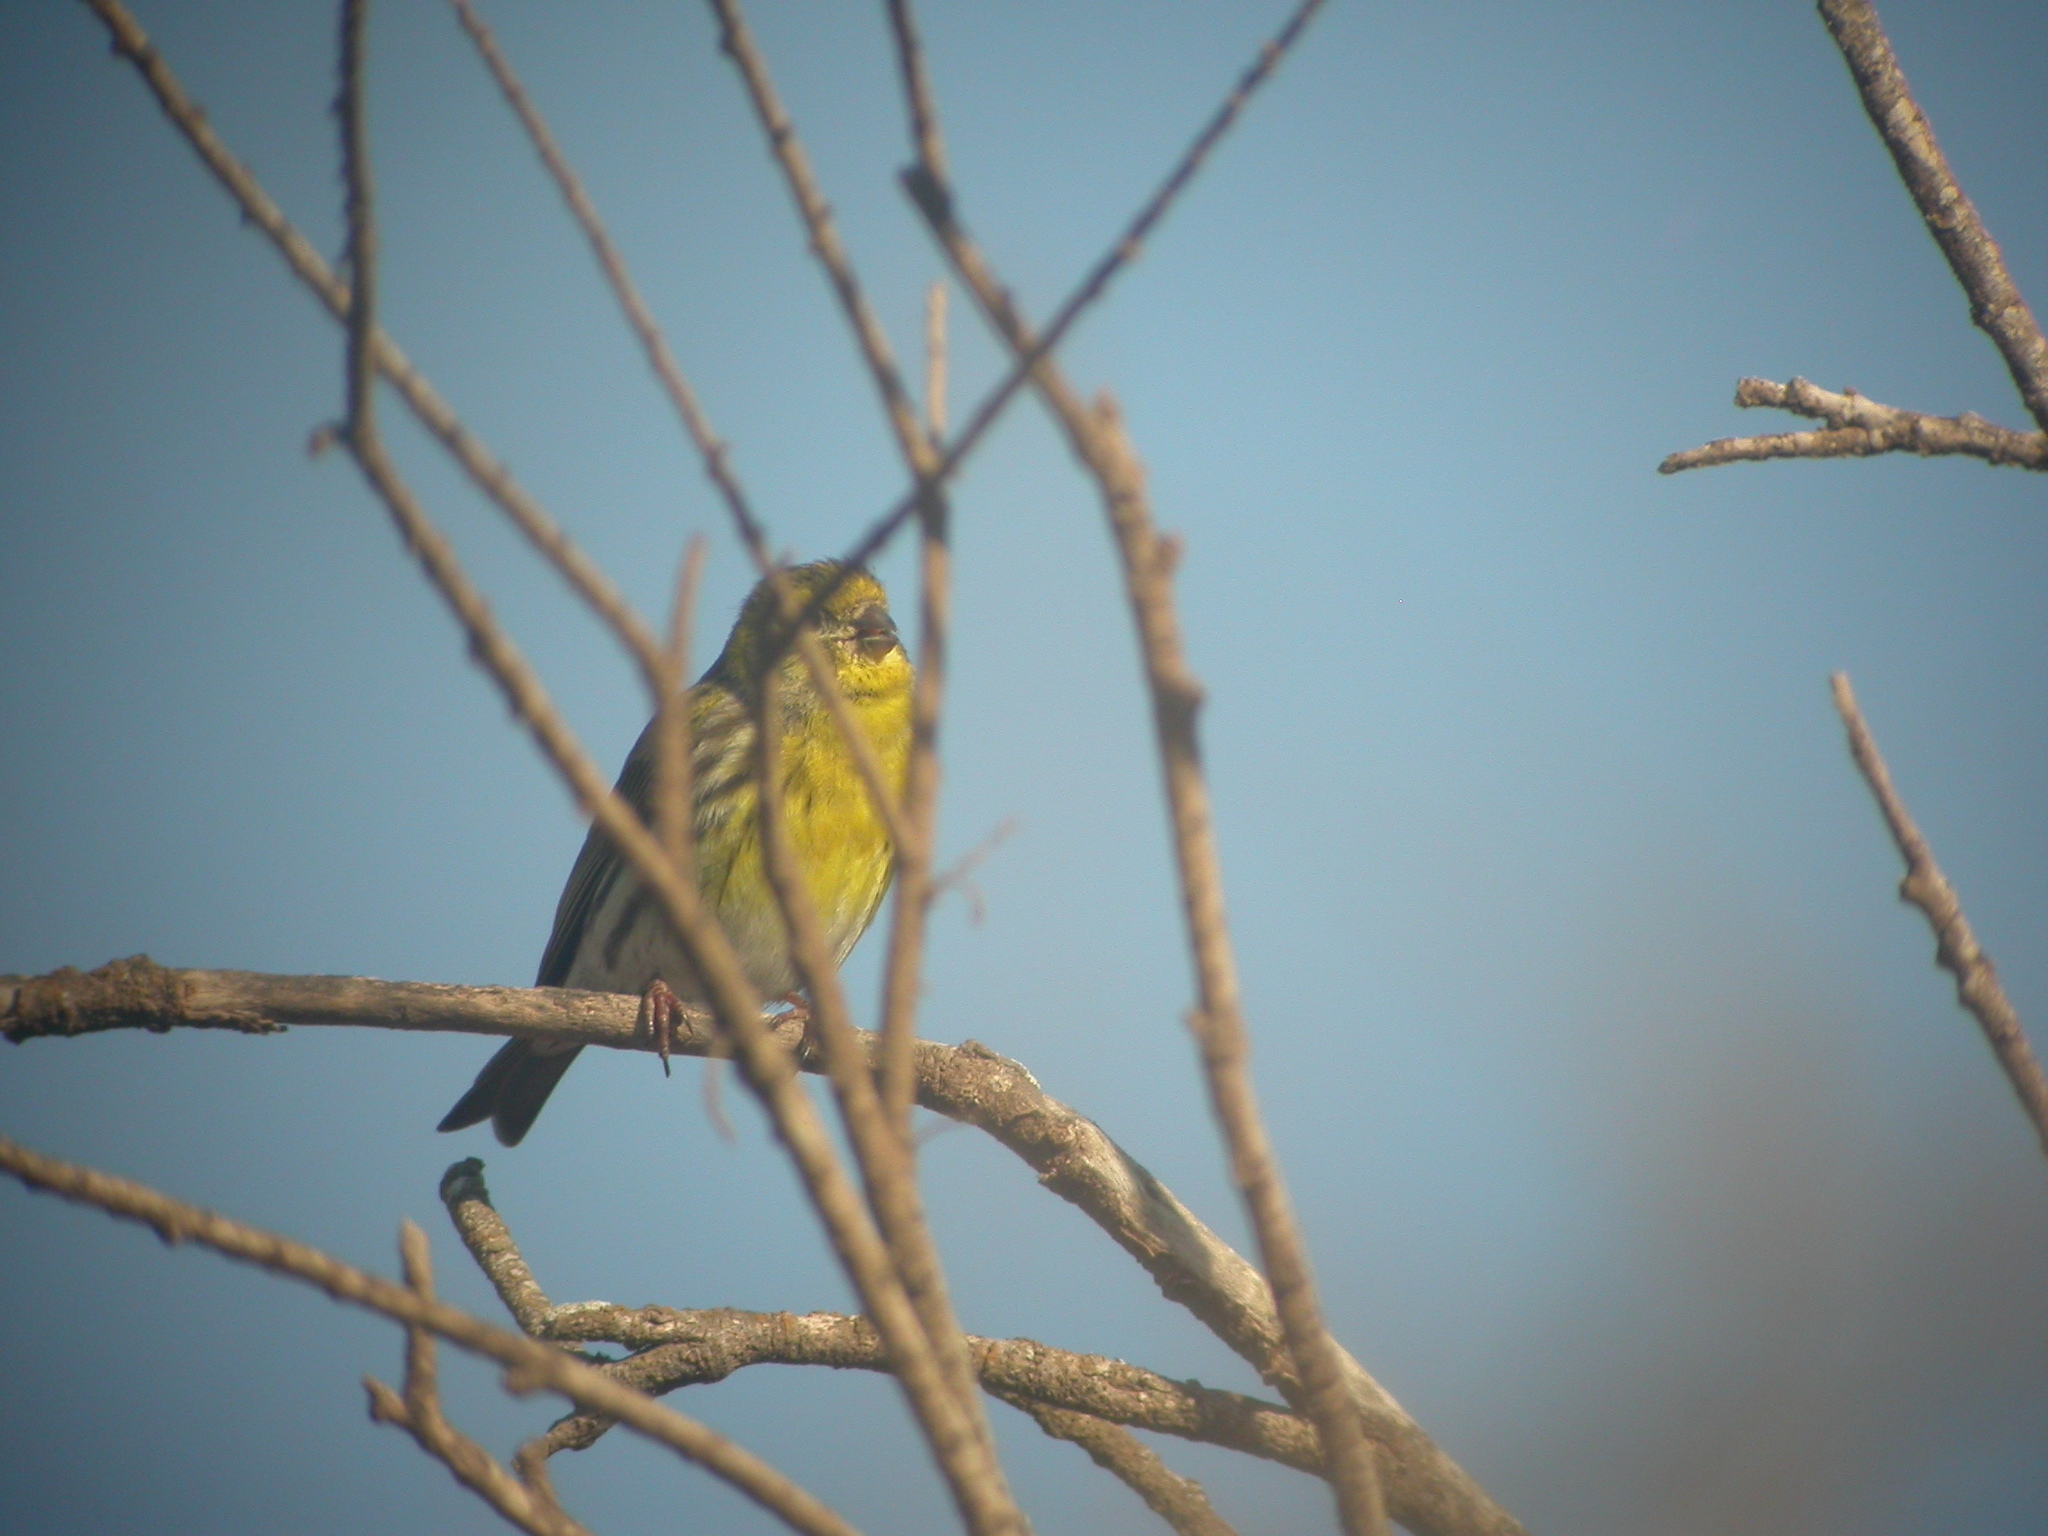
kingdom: Animalia
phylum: Chordata
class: Aves
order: Passeriformes
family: Fringillidae
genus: Serinus
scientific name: Serinus serinus
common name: European serin
